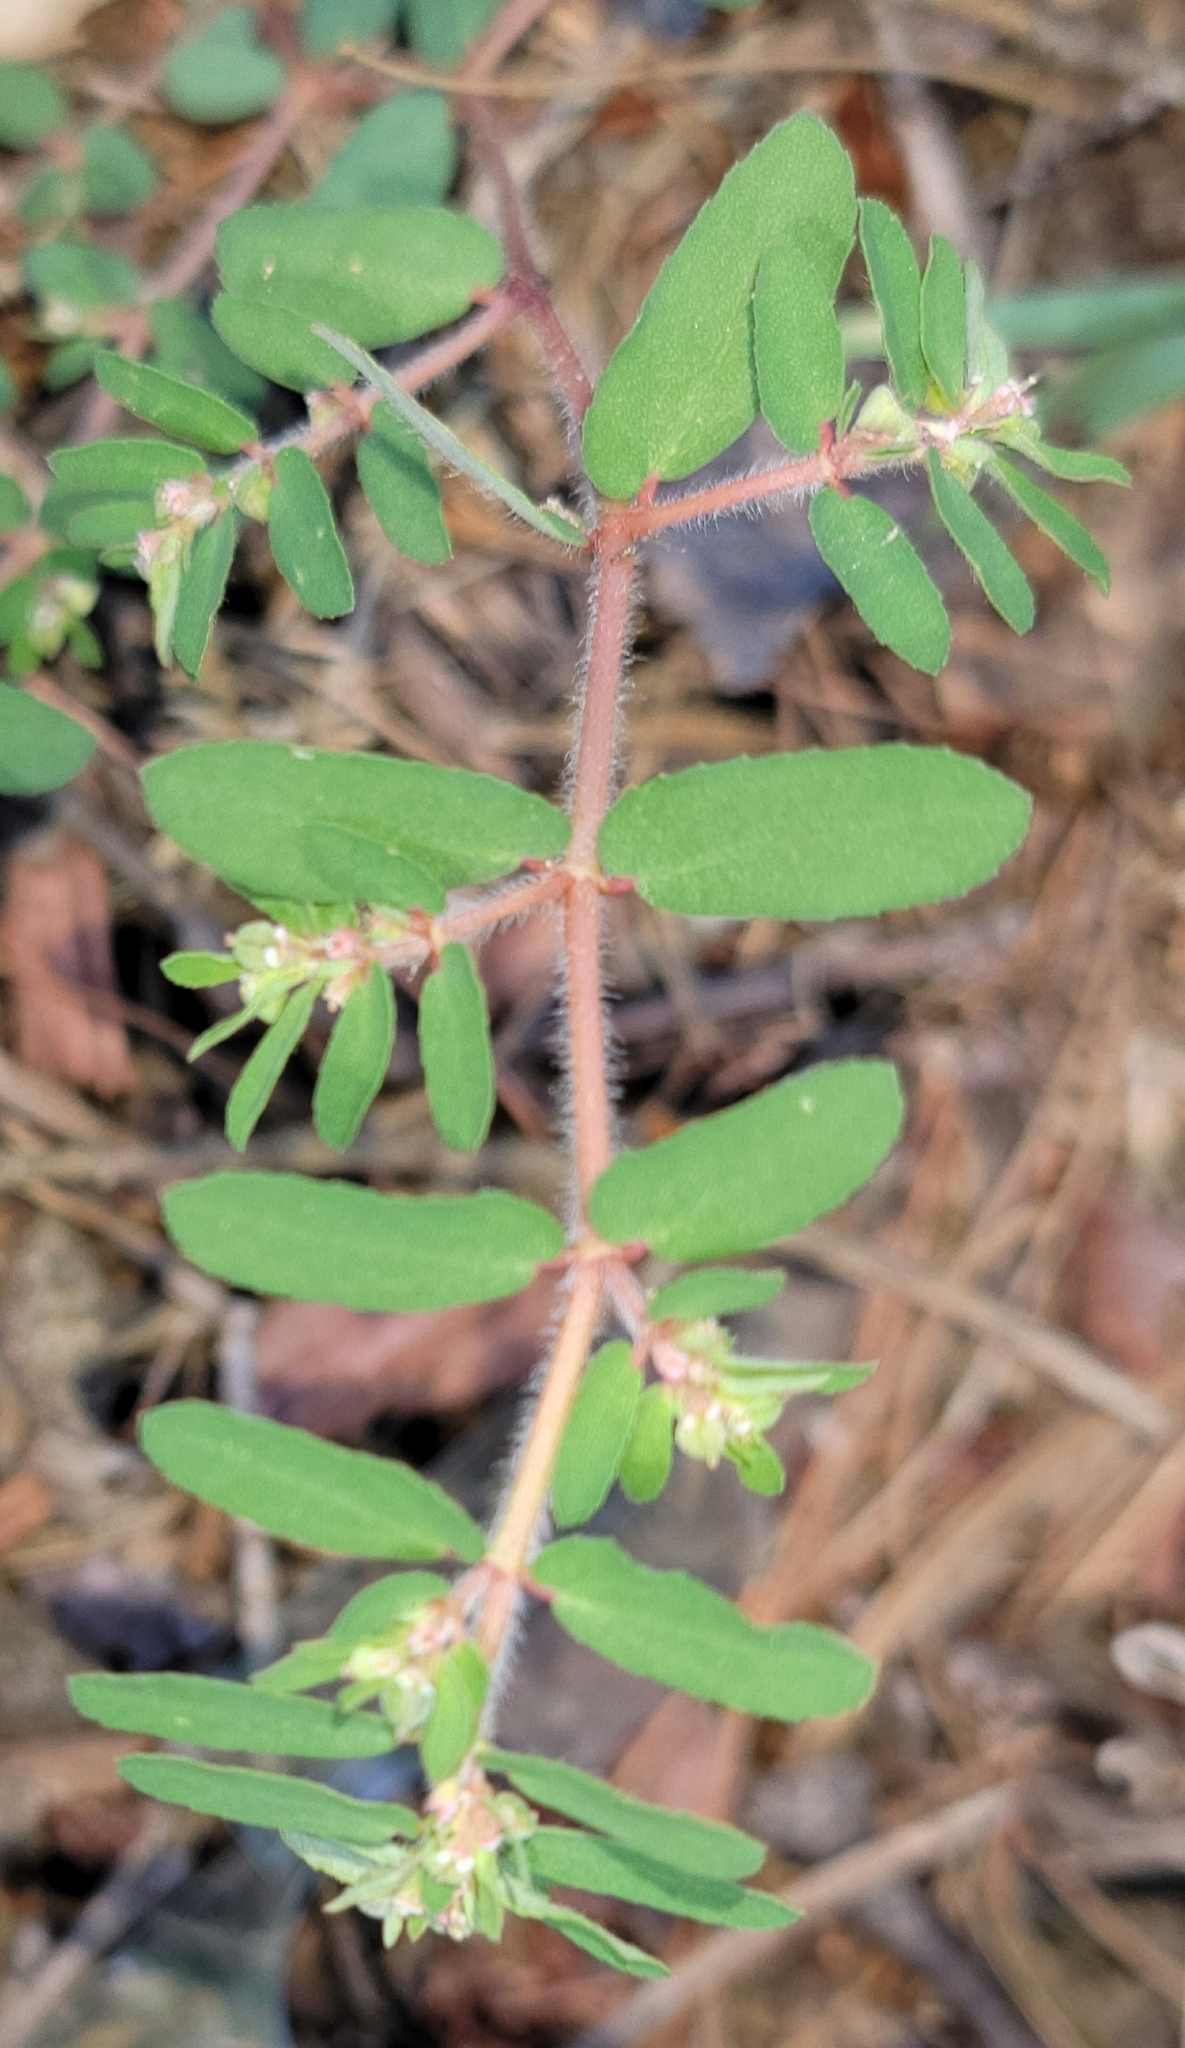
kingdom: Plantae
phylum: Tracheophyta
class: Magnoliopsida
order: Malpighiales
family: Euphorbiaceae
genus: Euphorbia
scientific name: Euphorbia maculata
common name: Spotted spurge
